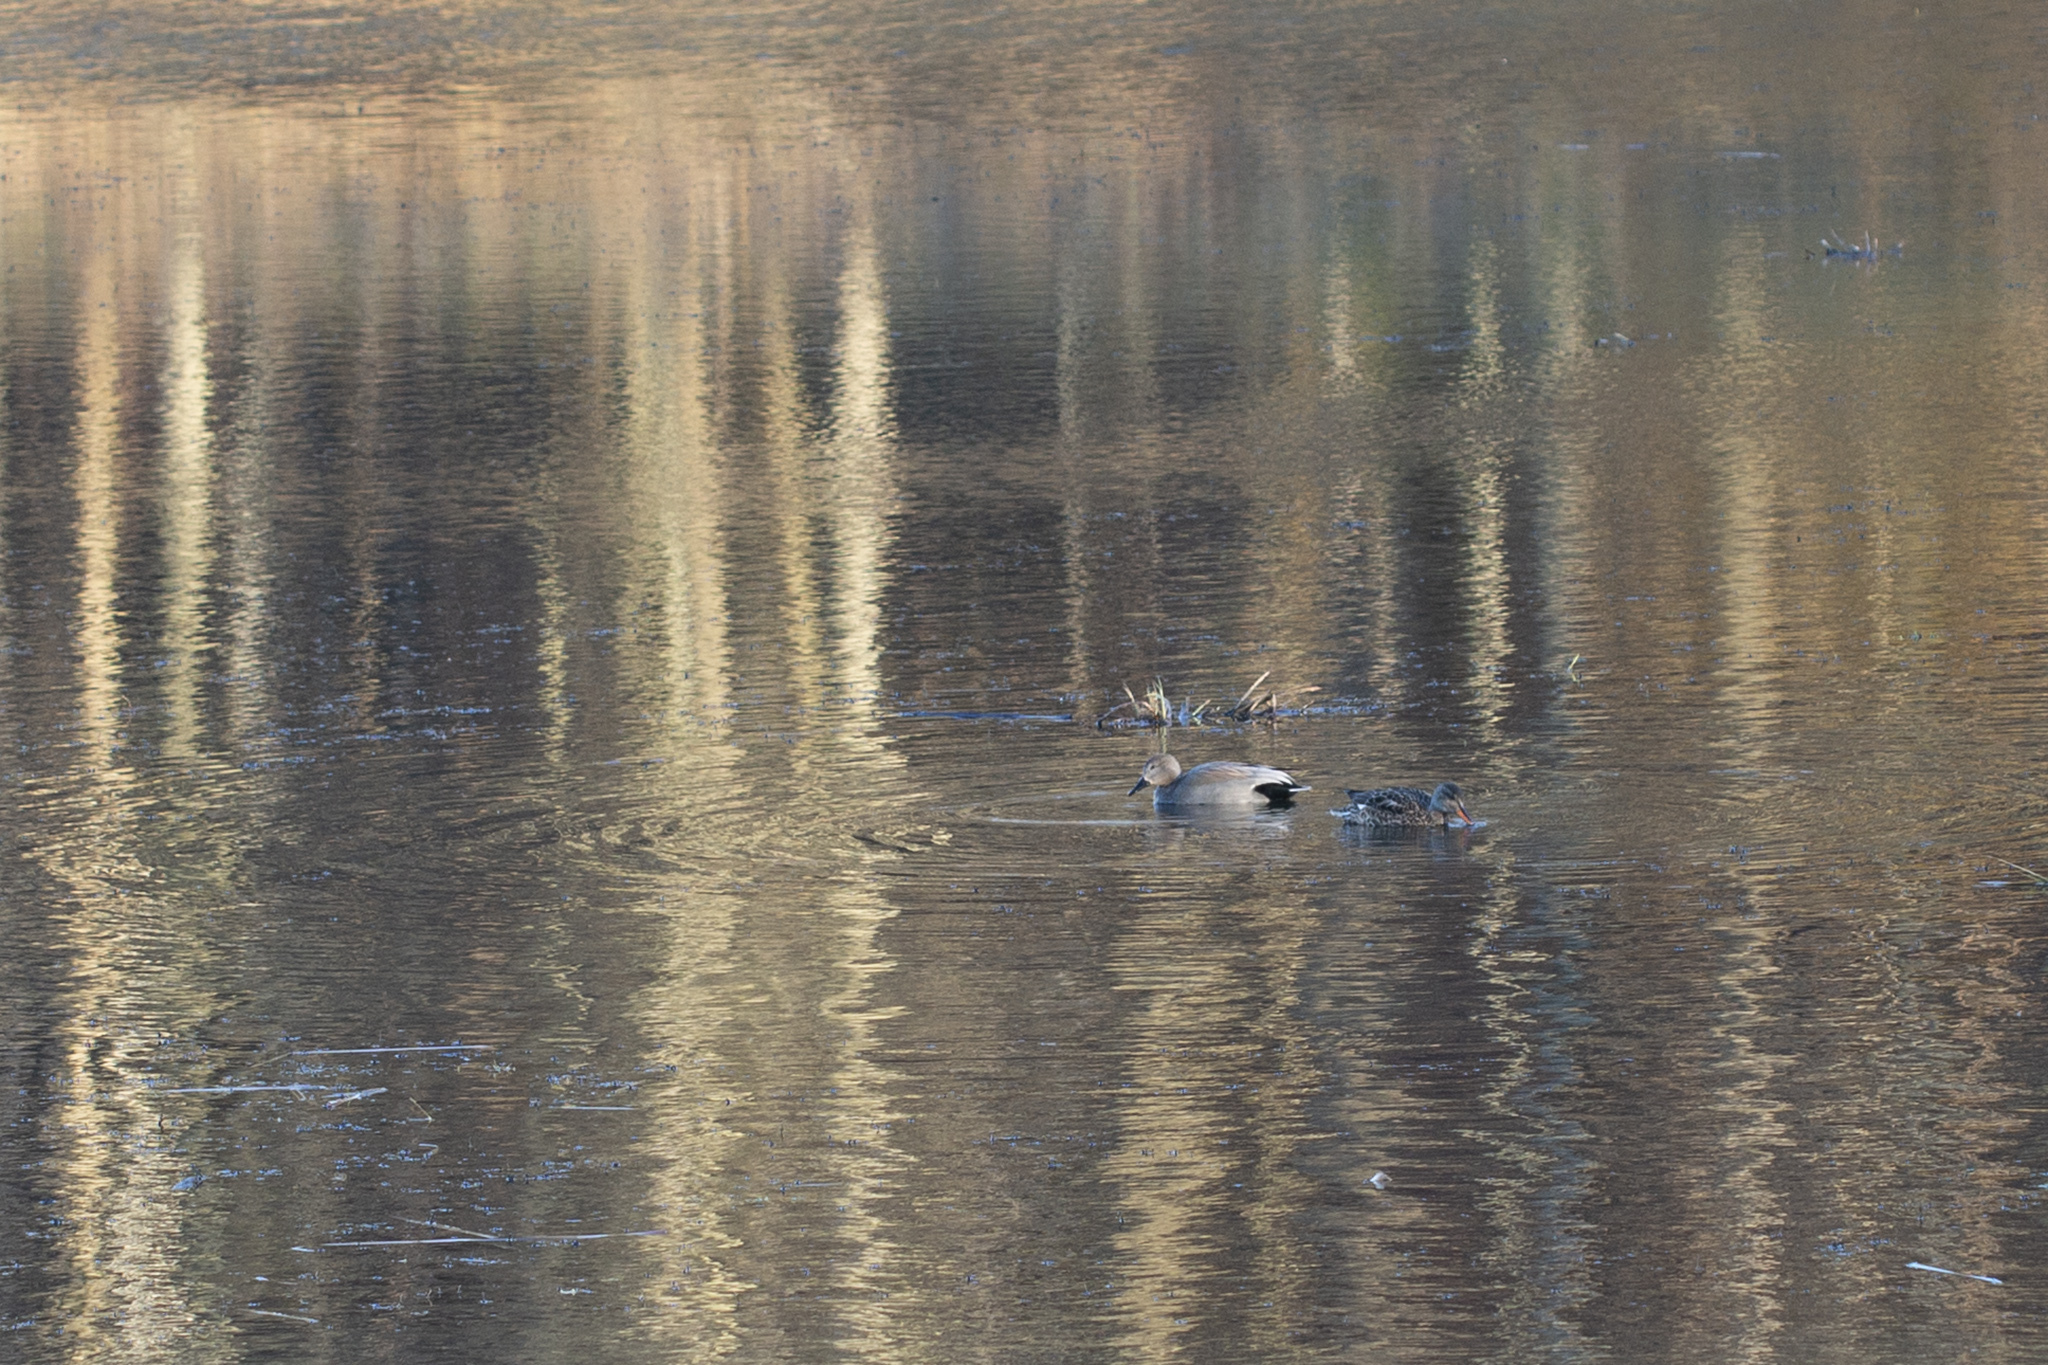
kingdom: Animalia
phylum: Chordata
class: Aves
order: Anseriformes
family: Anatidae
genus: Mareca
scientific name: Mareca strepera
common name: Gadwall
